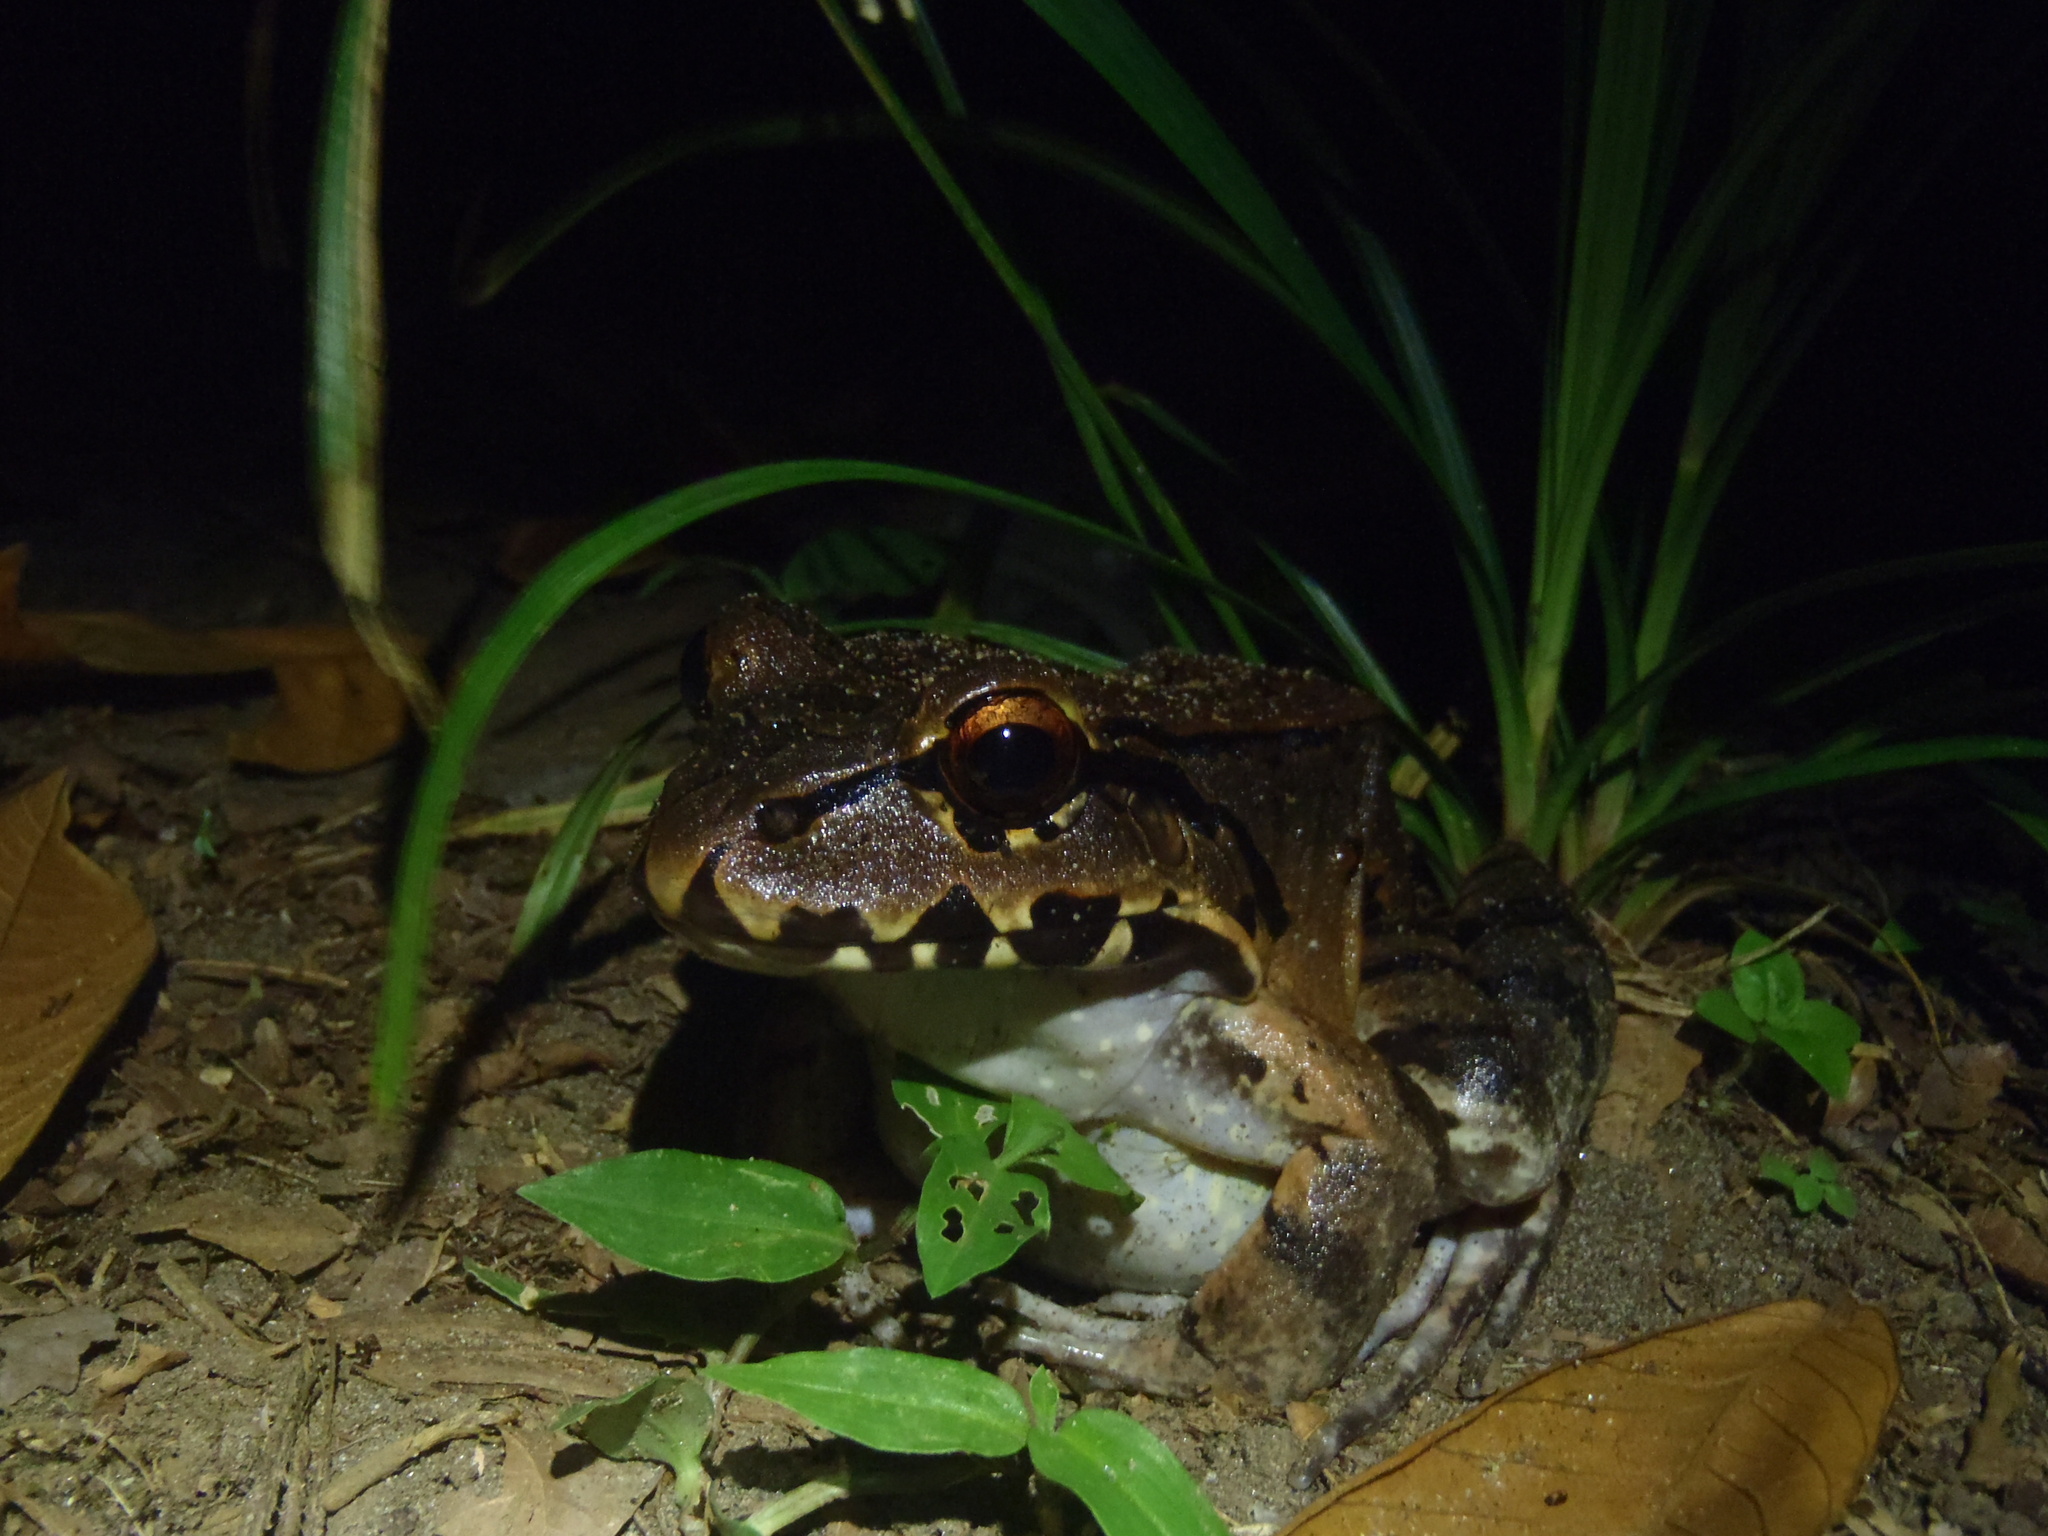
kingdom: Animalia
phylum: Chordata
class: Amphibia
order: Anura
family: Leptodactylidae
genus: Leptodactylus
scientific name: Leptodactylus savagei
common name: Savage's thin-toed frog
